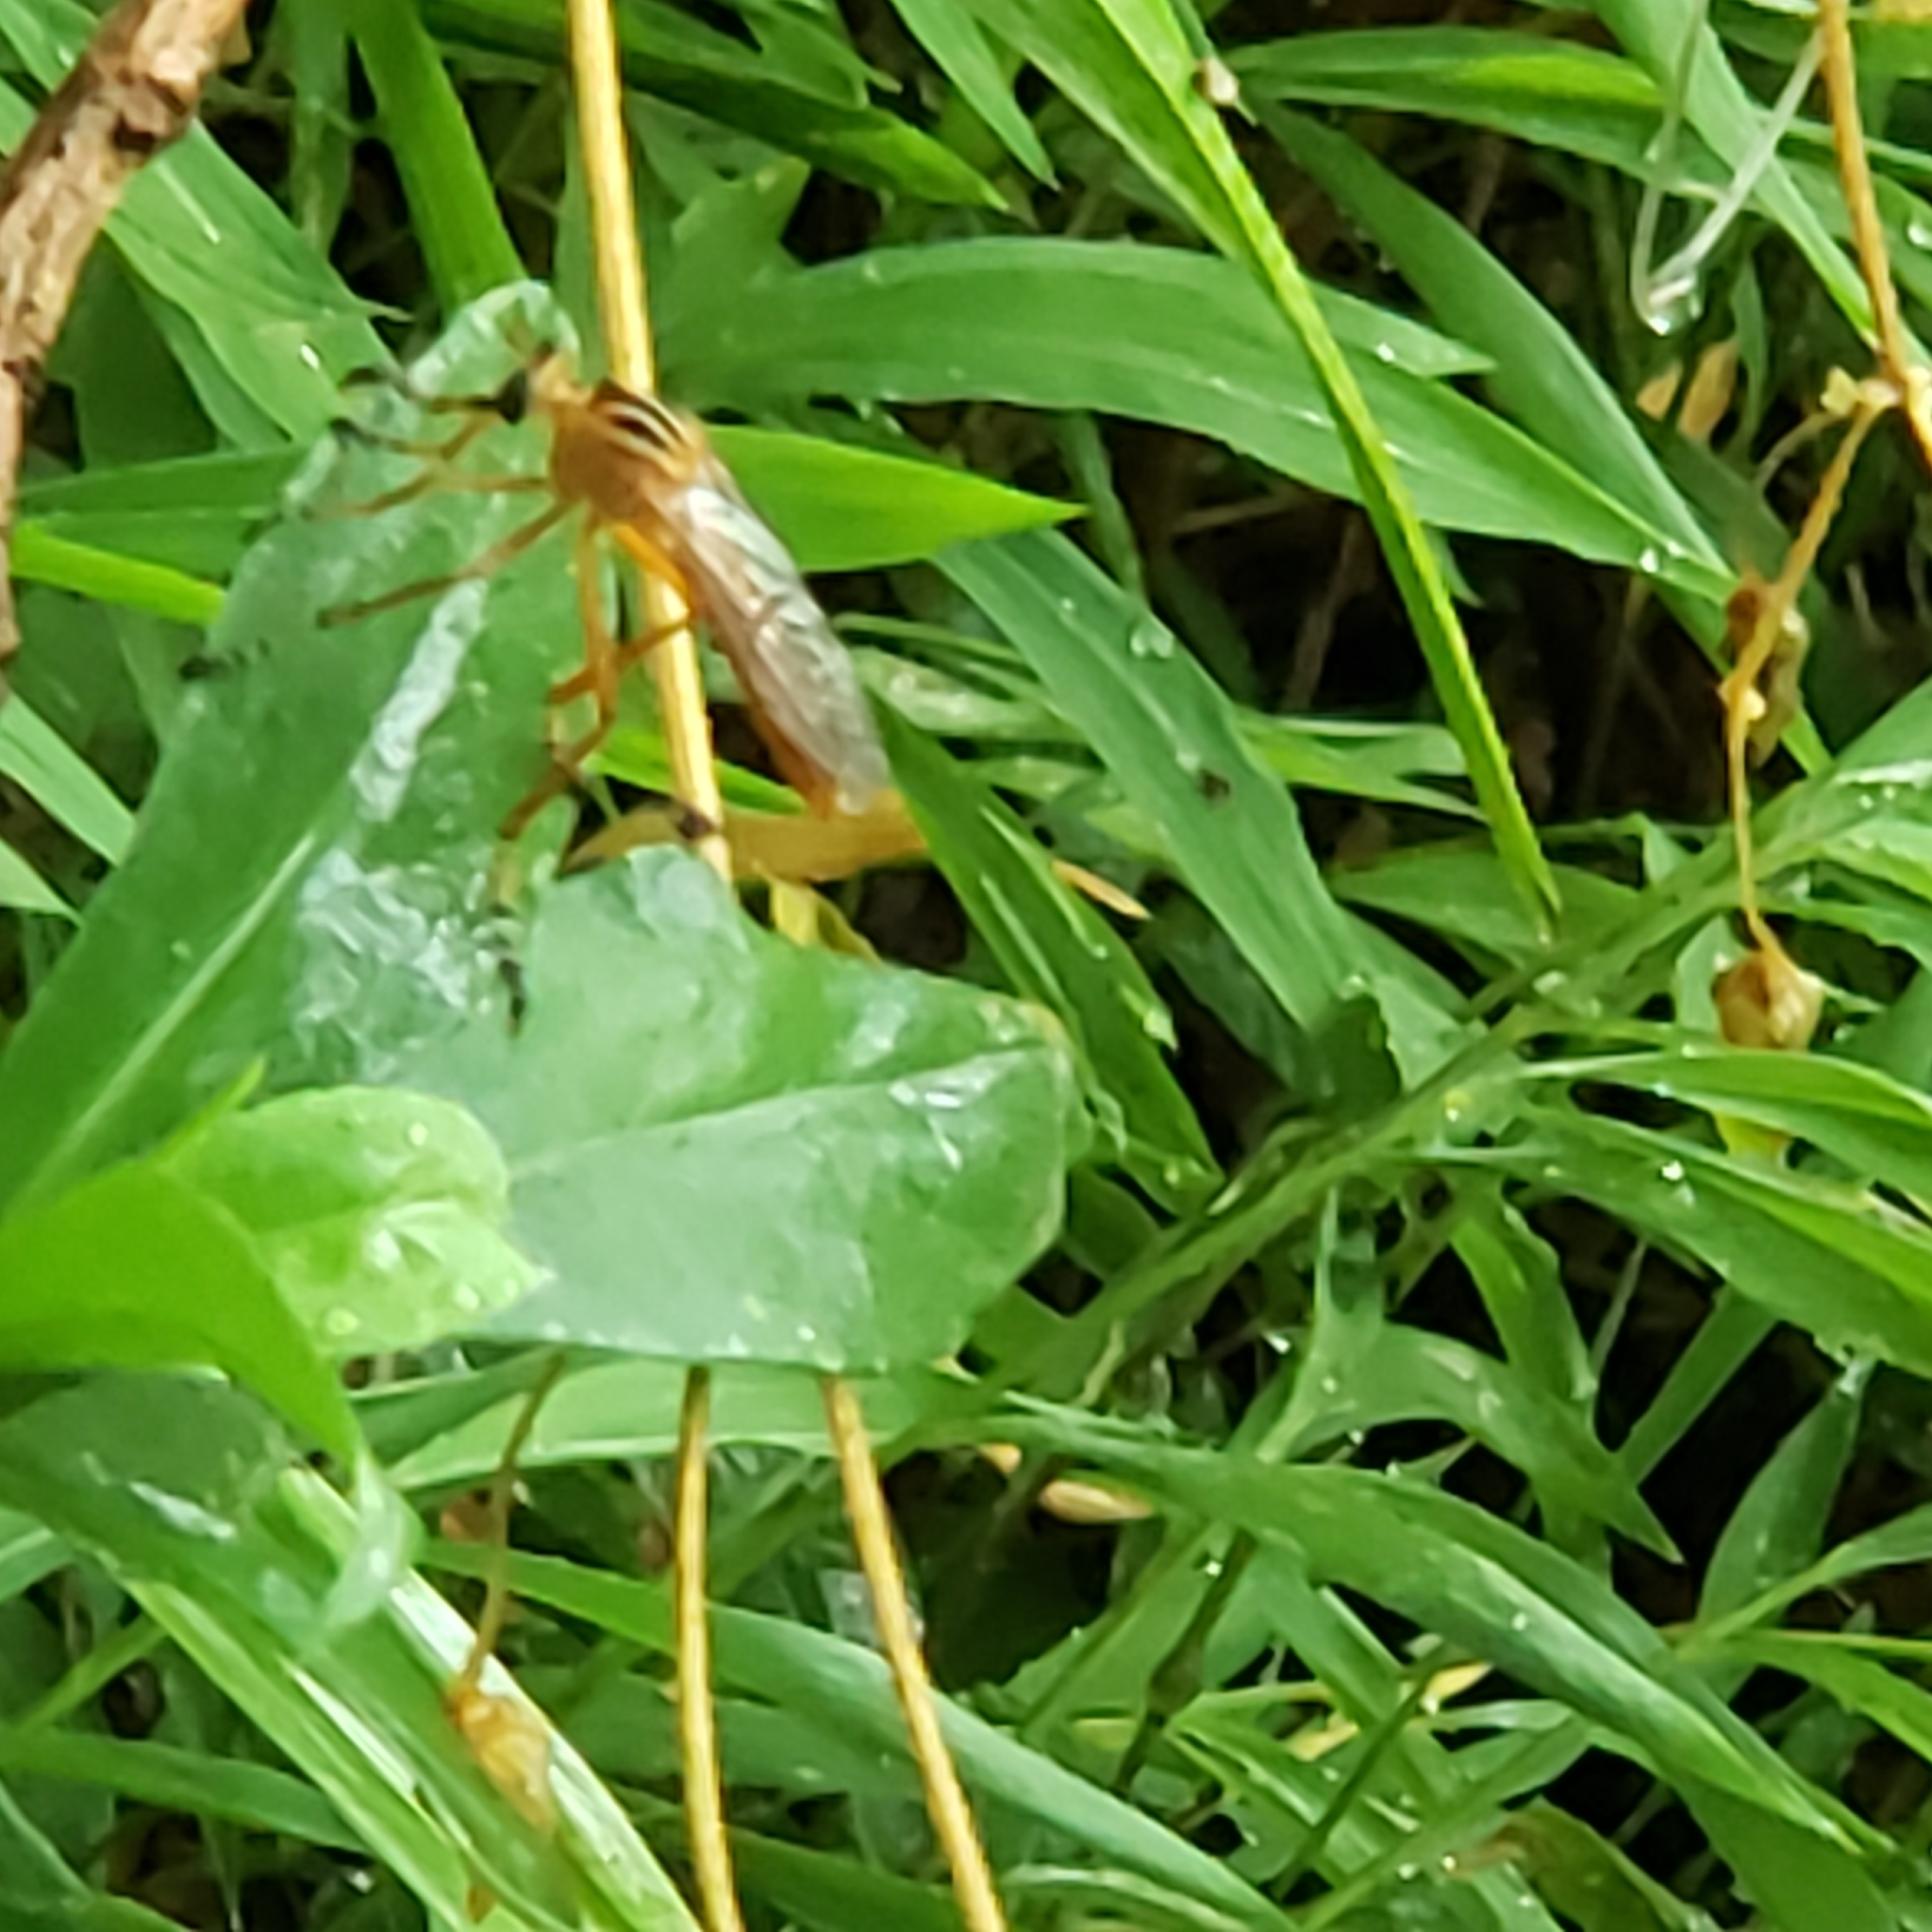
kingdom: Animalia
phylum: Arthropoda
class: Insecta
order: Diptera
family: Asilidae
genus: Diogmites
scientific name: Diogmites neoternatus
